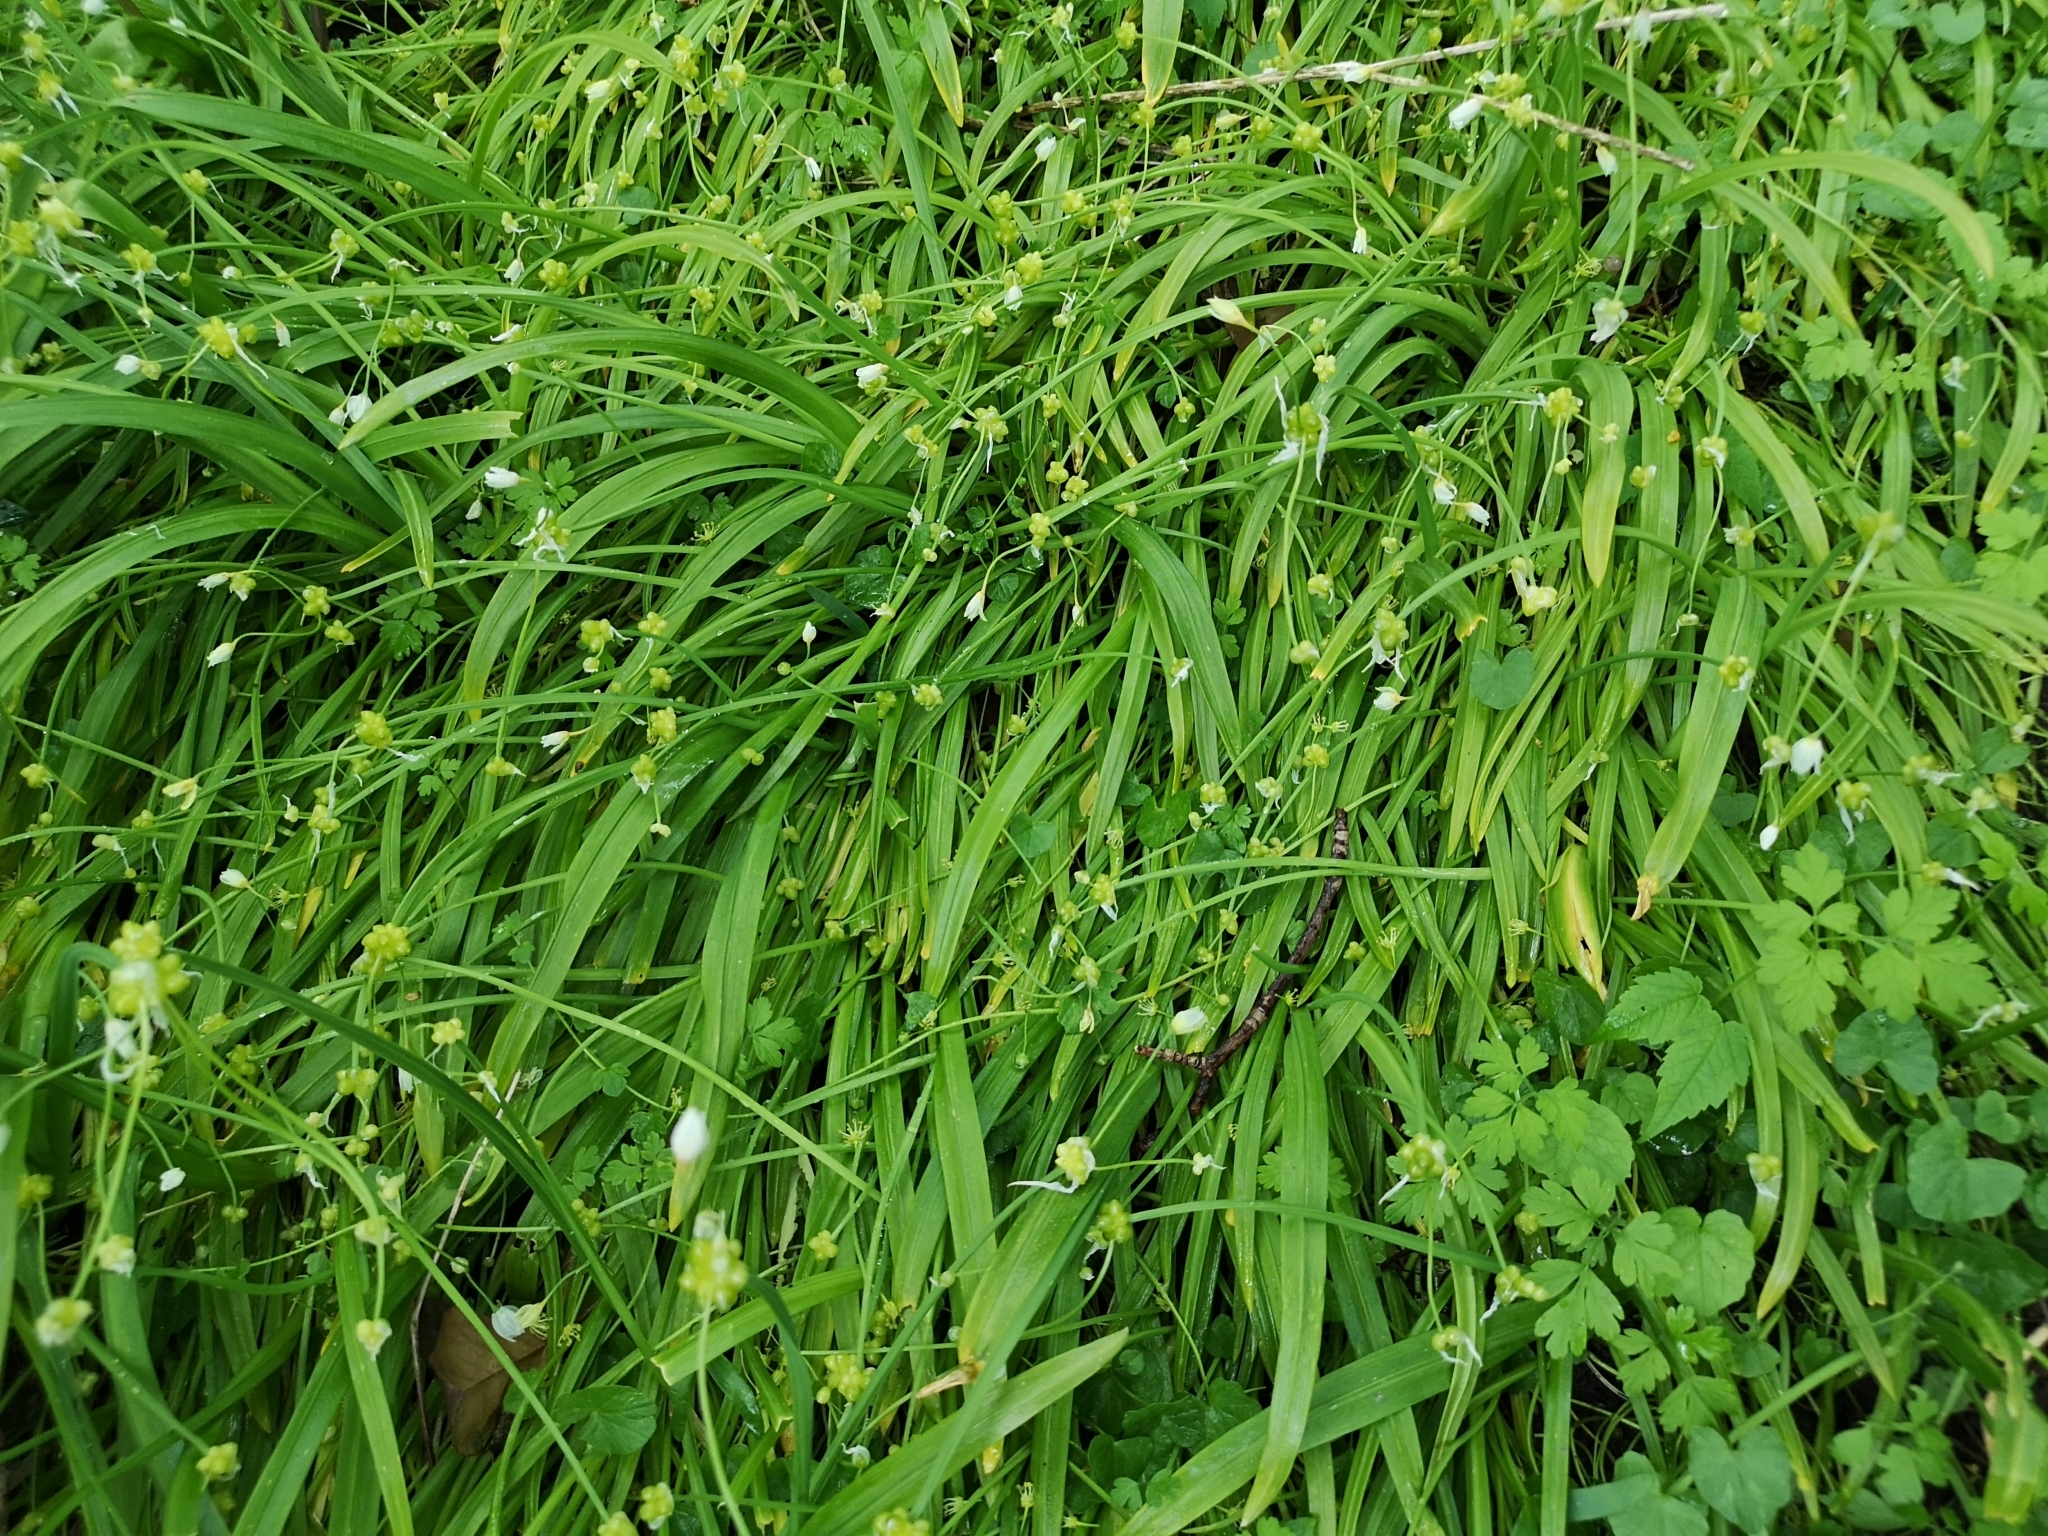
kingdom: Plantae
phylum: Tracheophyta
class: Liliopsida
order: Asparagales
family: Amaryllidaceae
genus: Allium
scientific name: Allium paradoxum
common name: Few-flowered garlic
